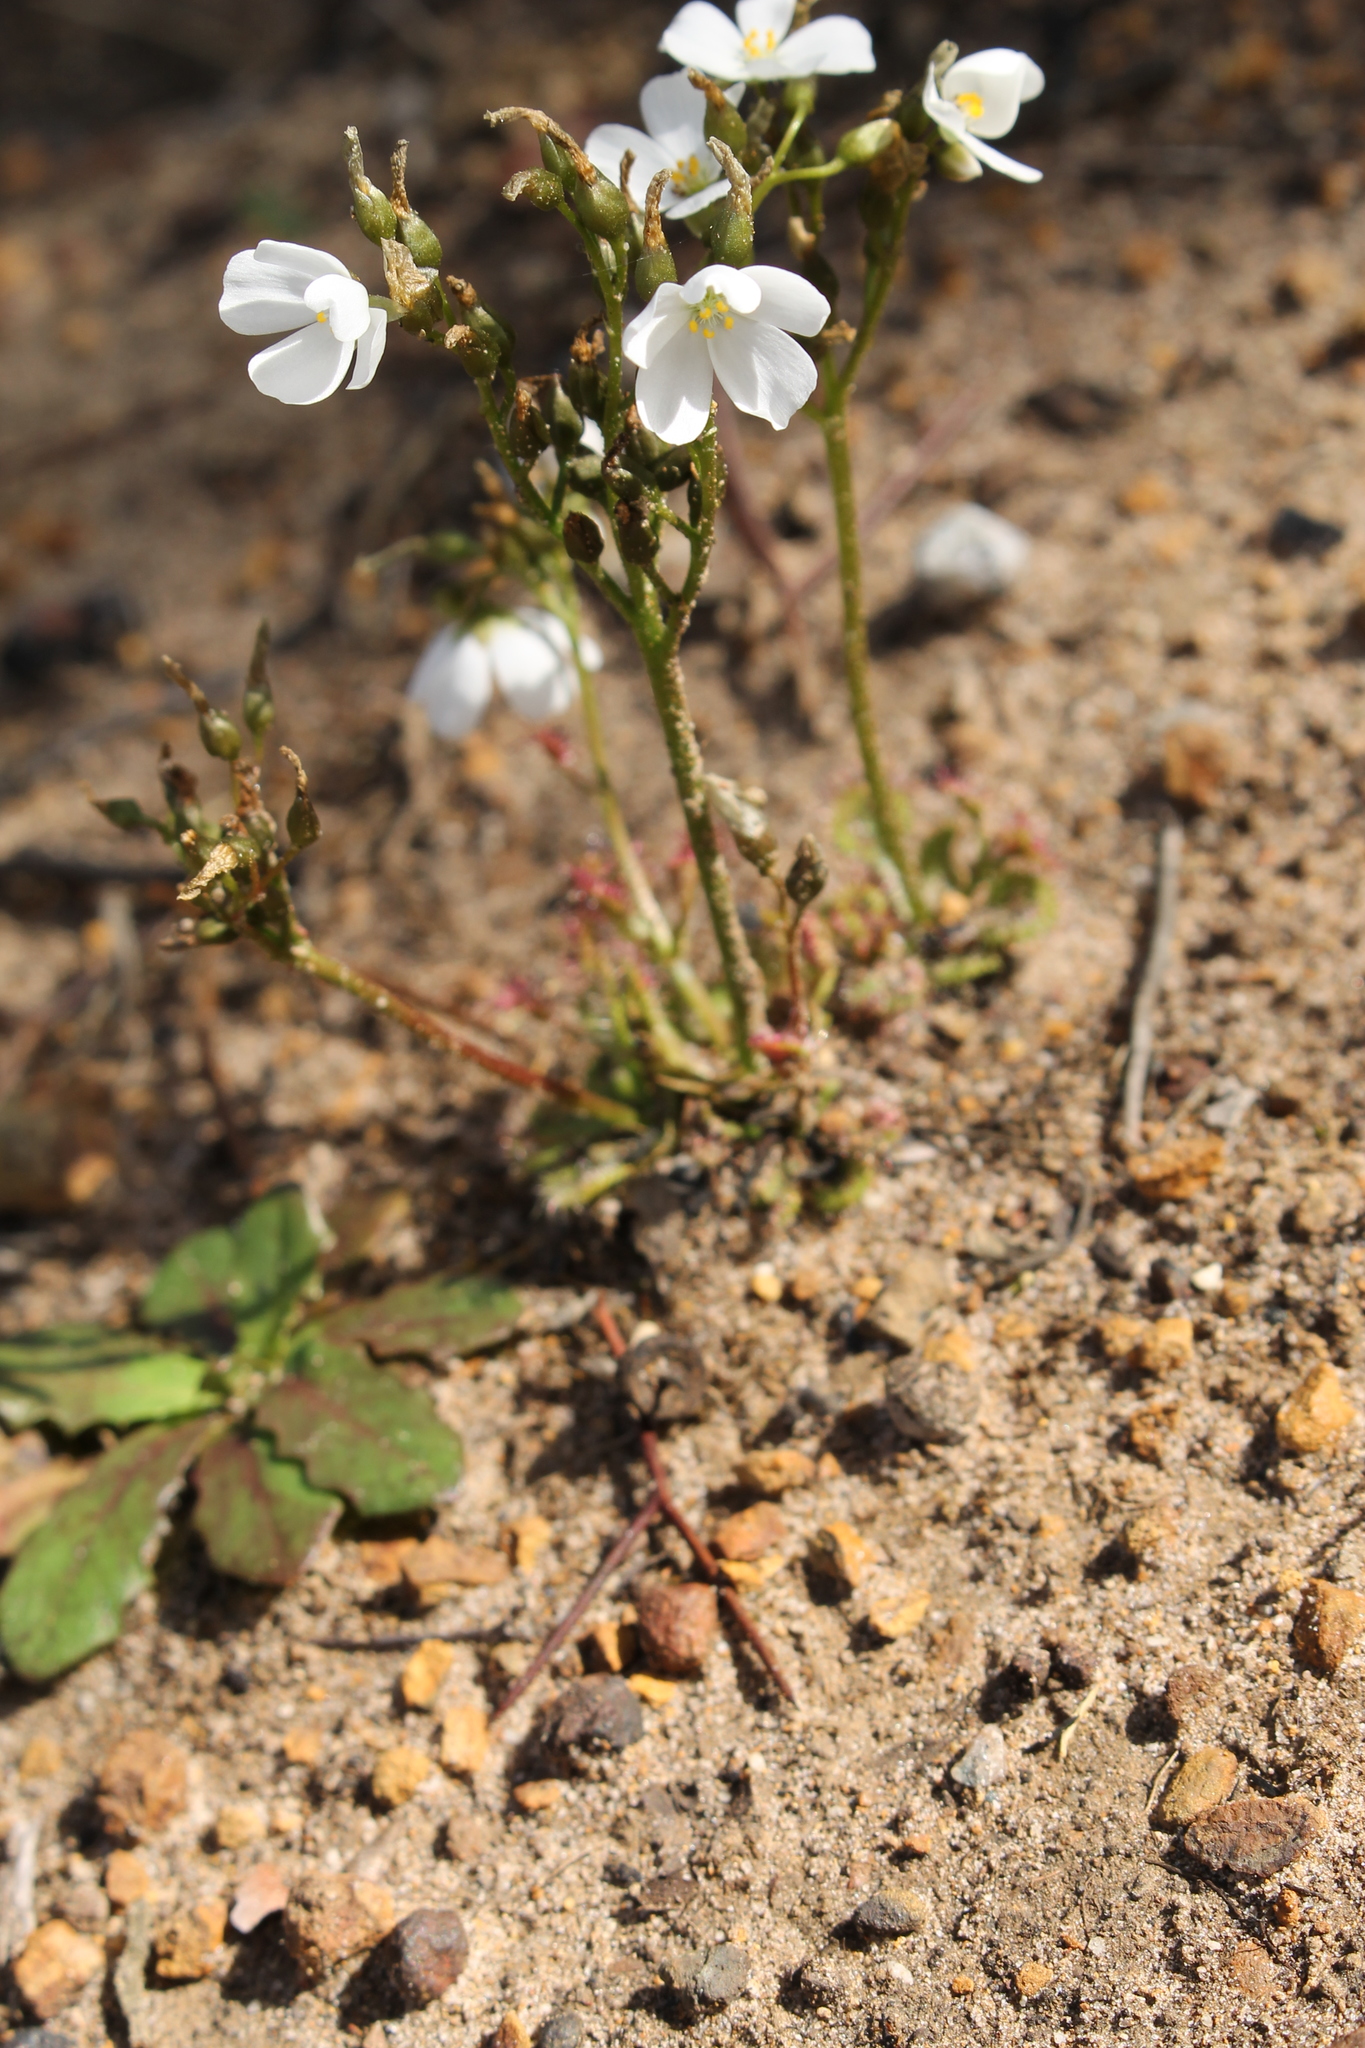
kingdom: Plantae
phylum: Tracheophyta
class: Magnoliopsida
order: Caryophyllales
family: Droseraceae
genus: Drosera
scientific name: Drosera stolonifera
